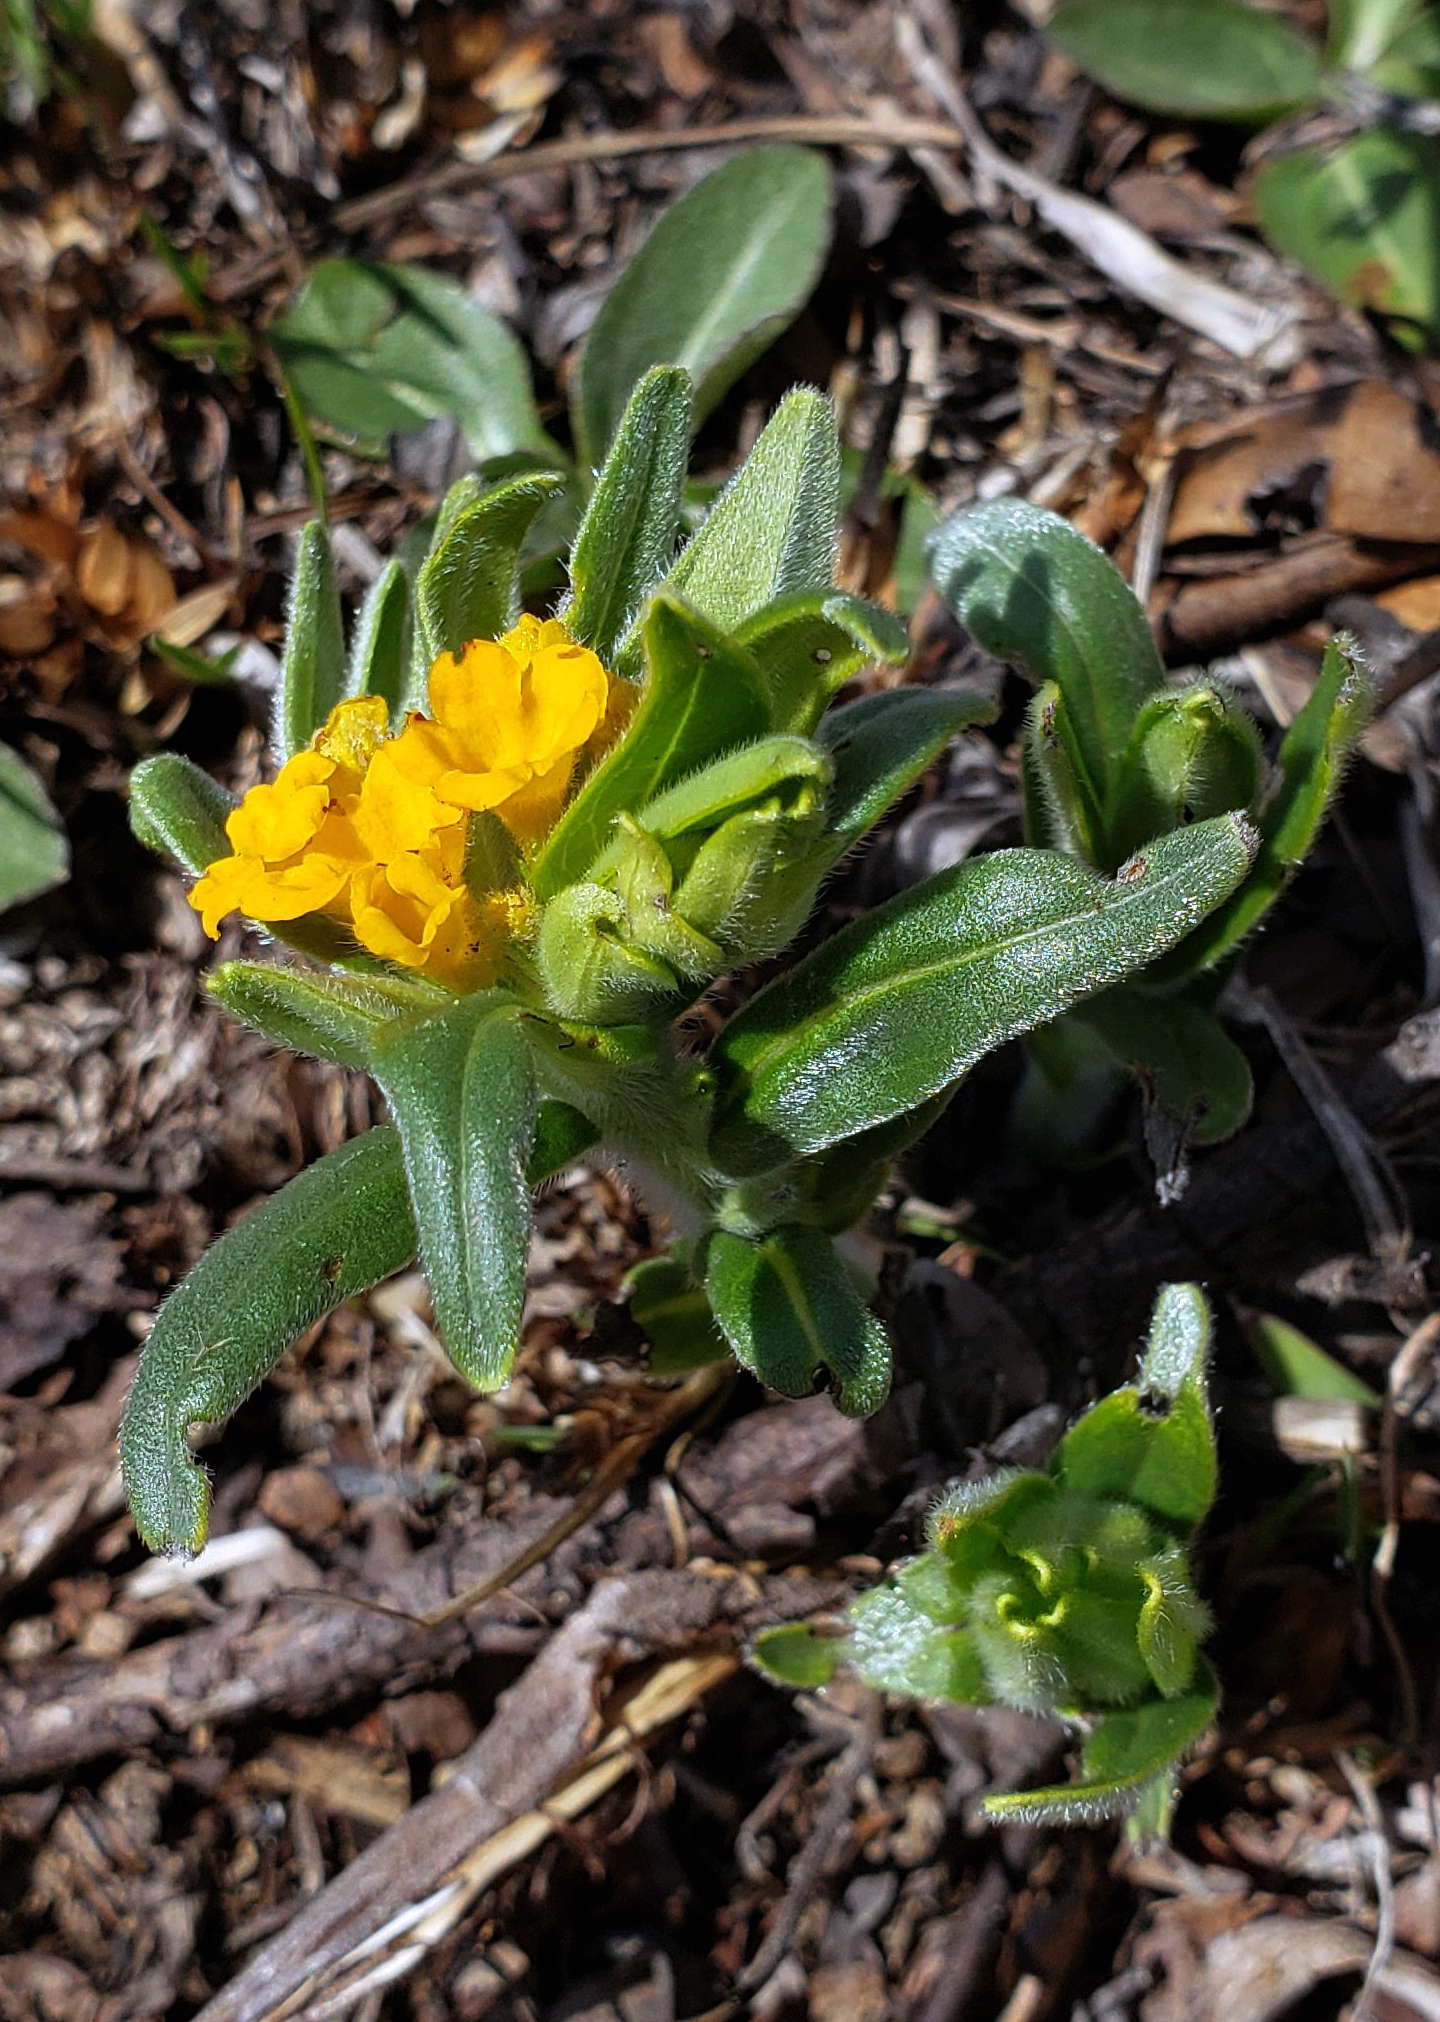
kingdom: Plantae
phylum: Tracheophyta
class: Magnoliopsida
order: Boraginales
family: Boraginaceae
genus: Lithospermum
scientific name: Lithospermum canescens
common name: Hoary puccoon
